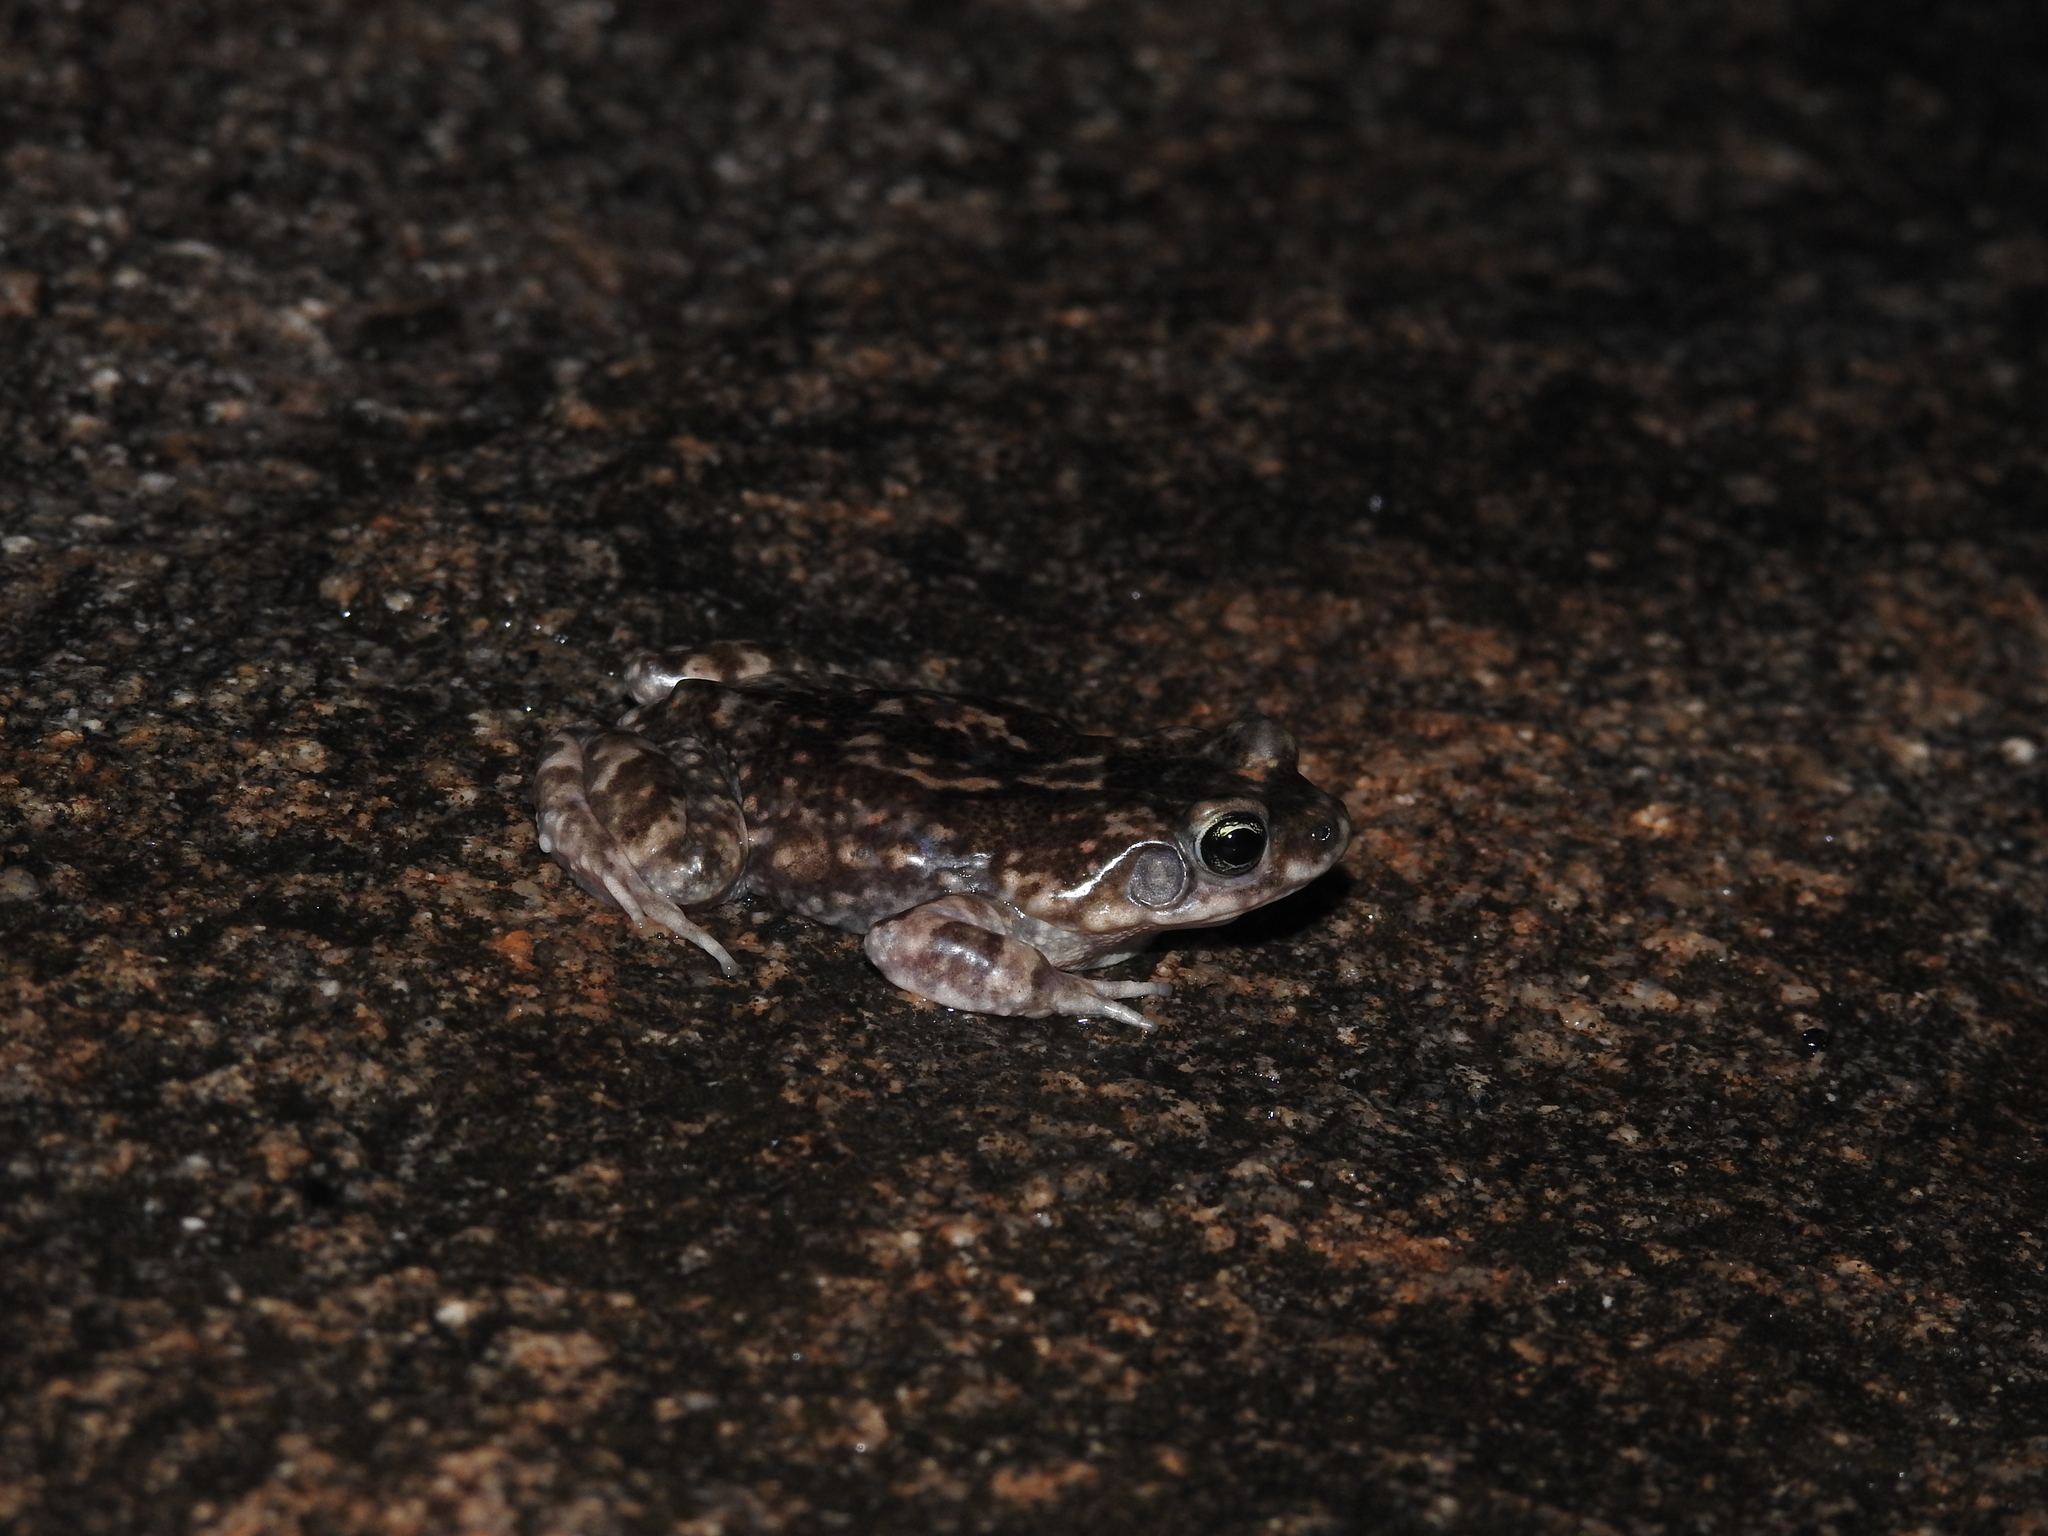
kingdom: Animalia
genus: Firouzophrynus
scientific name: Firouzophrynus
